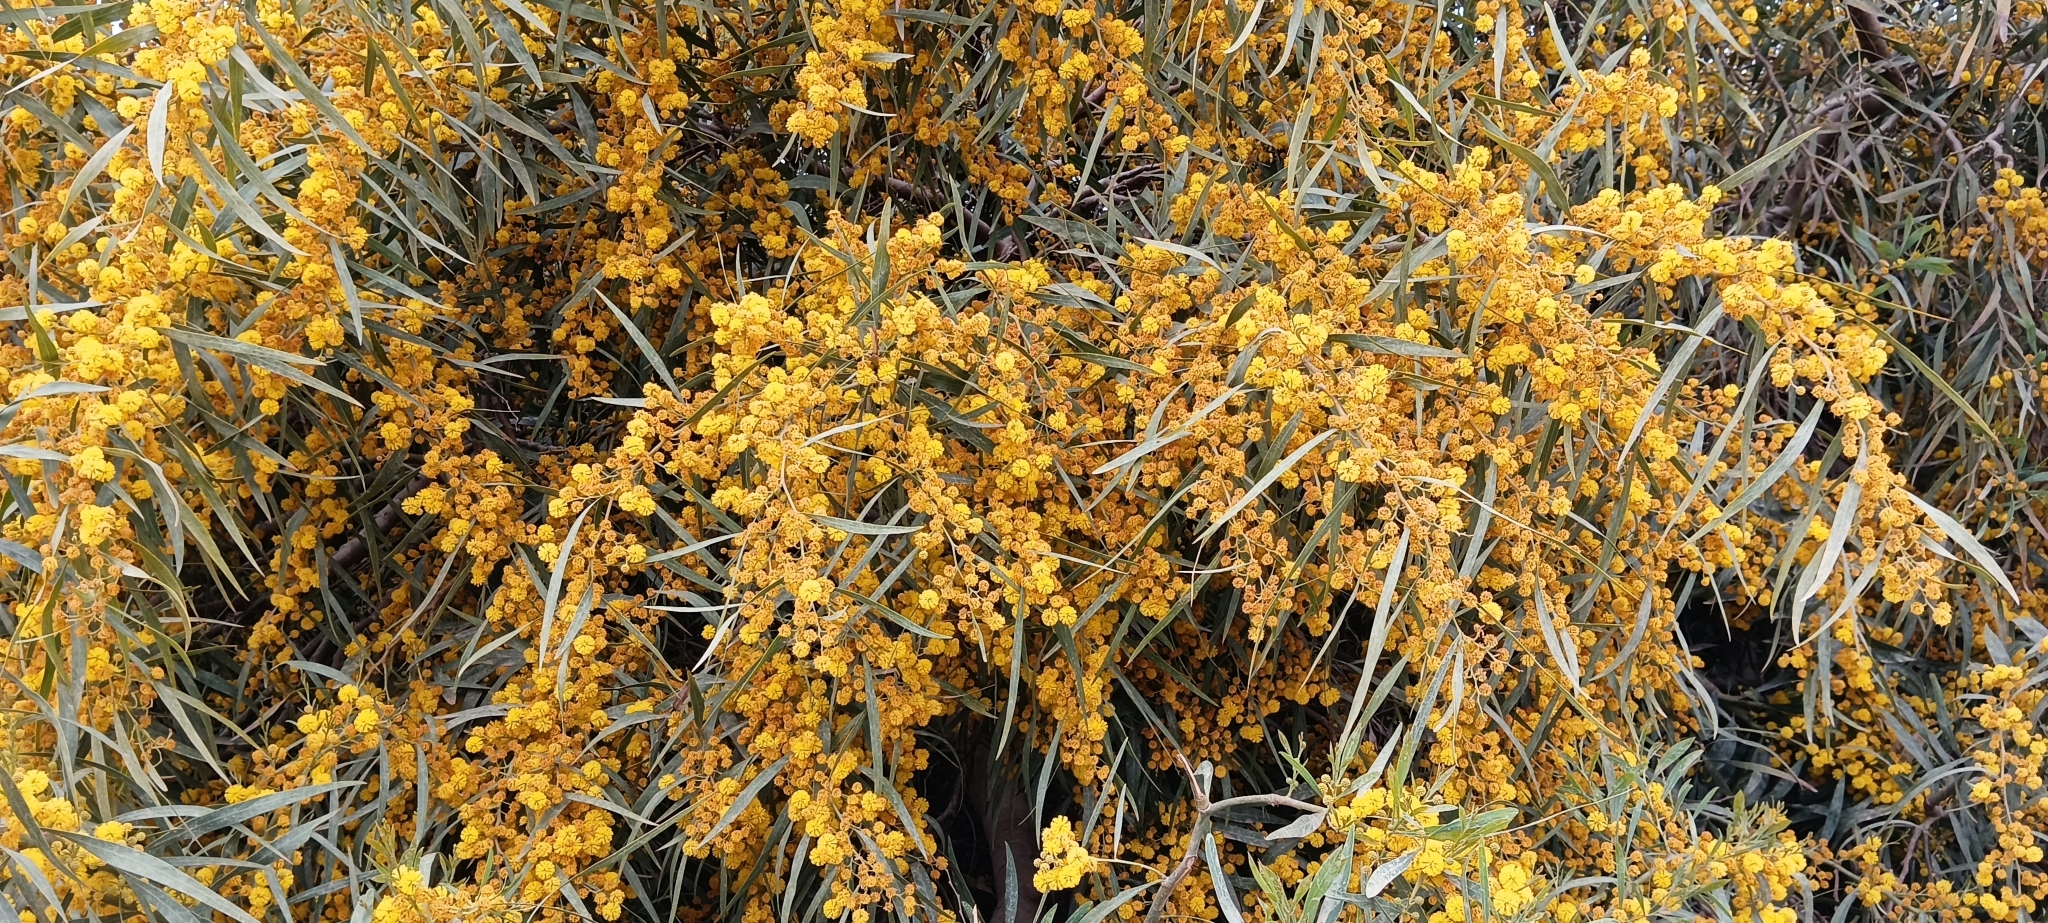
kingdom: Plantae
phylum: Tracheophyta
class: Magnoliopsida
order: Fabales
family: Fabaceae
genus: Acacia
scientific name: Acacia saligna
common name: Orange wattle
